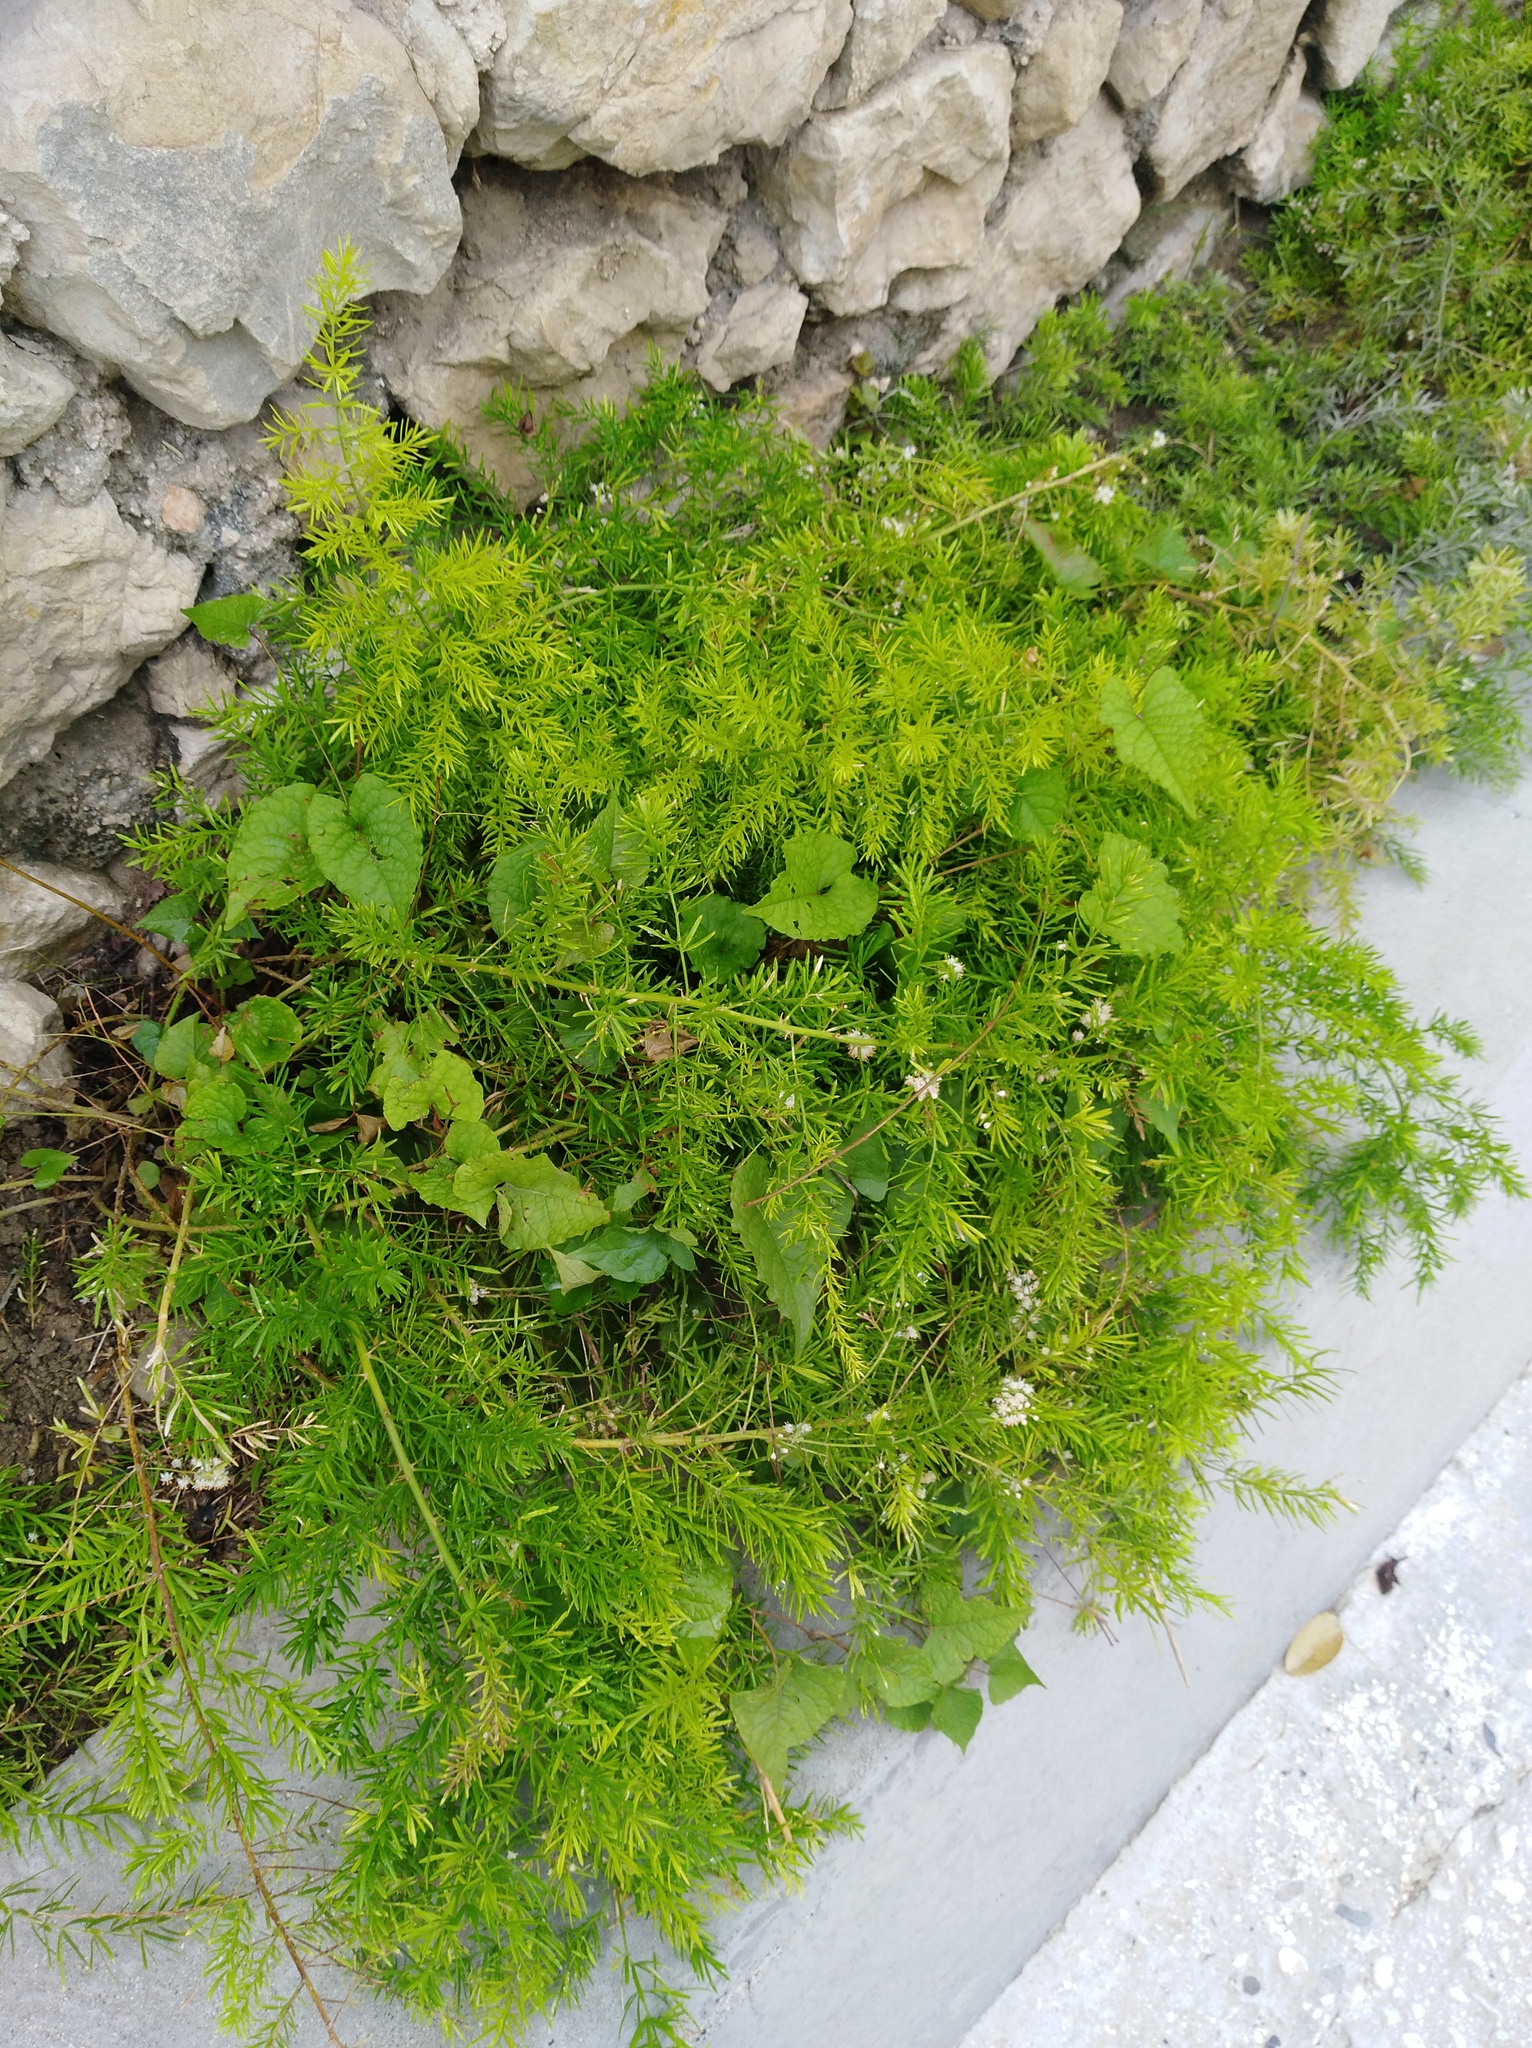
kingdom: Plantae
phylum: Tracheophyta
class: Liliopsida
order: Asparagales
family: Asparagaceae
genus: Asparagus
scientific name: Asparagus aethiopicus
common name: Sprenger's asparagus fern
